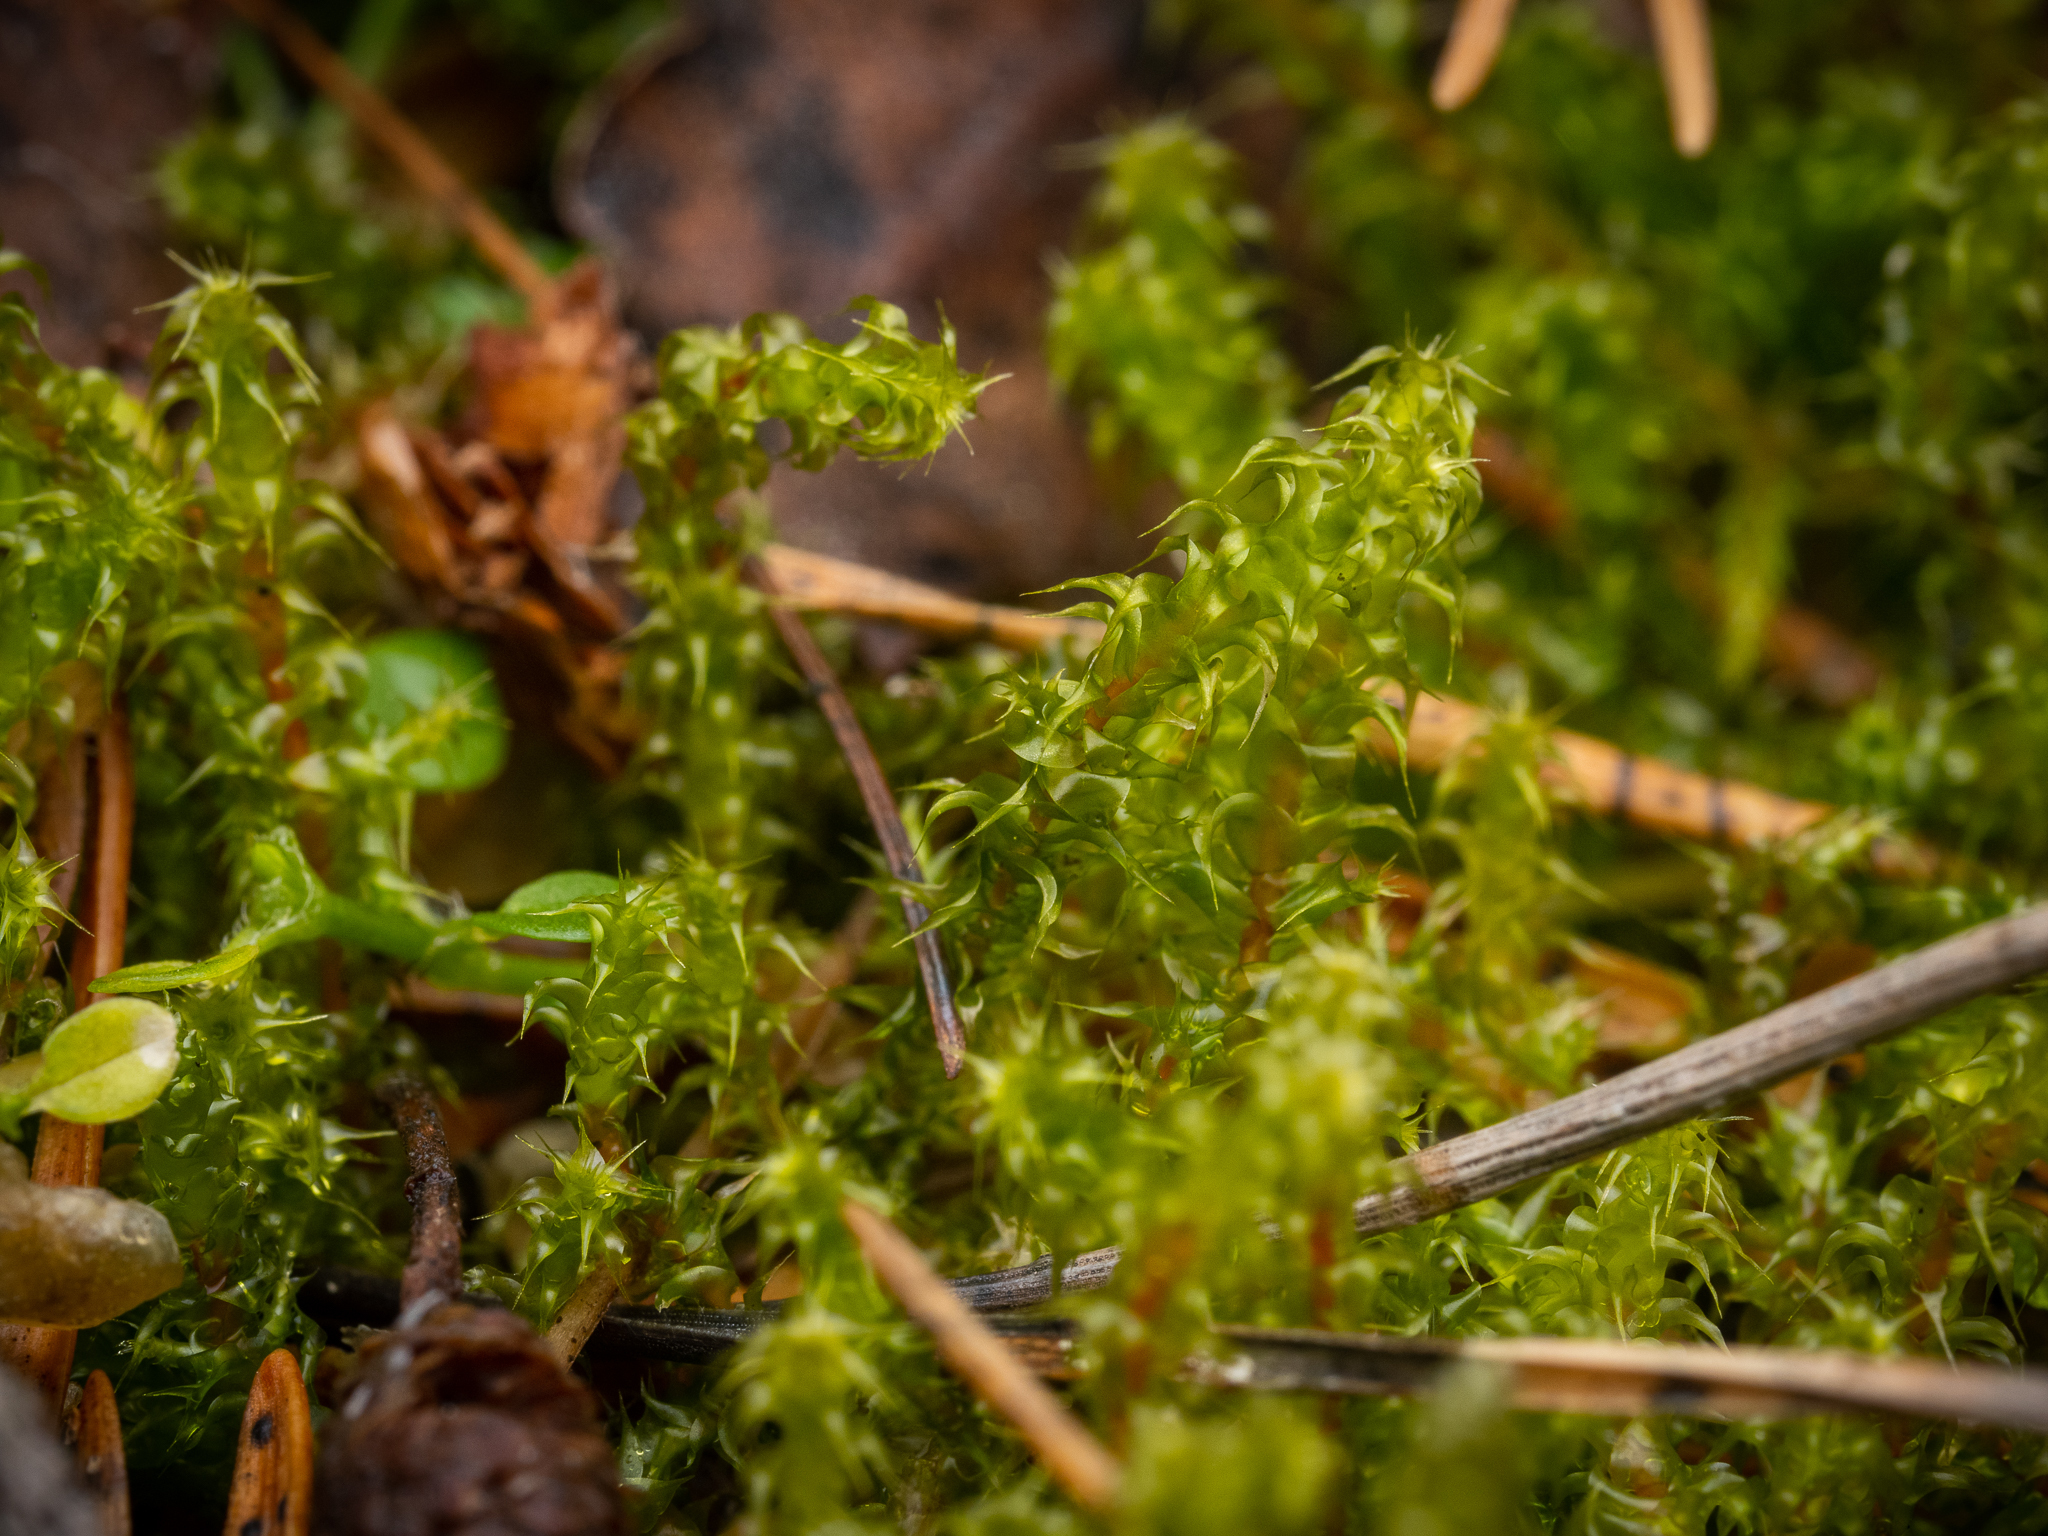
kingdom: Plantae
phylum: Bryophyta
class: Bryopsida
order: Hypnales
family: Hylocomiaceae
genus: Rhytidiadelphus
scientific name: Rhytidiadelphus squarrosus
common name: Springy turf-moss
